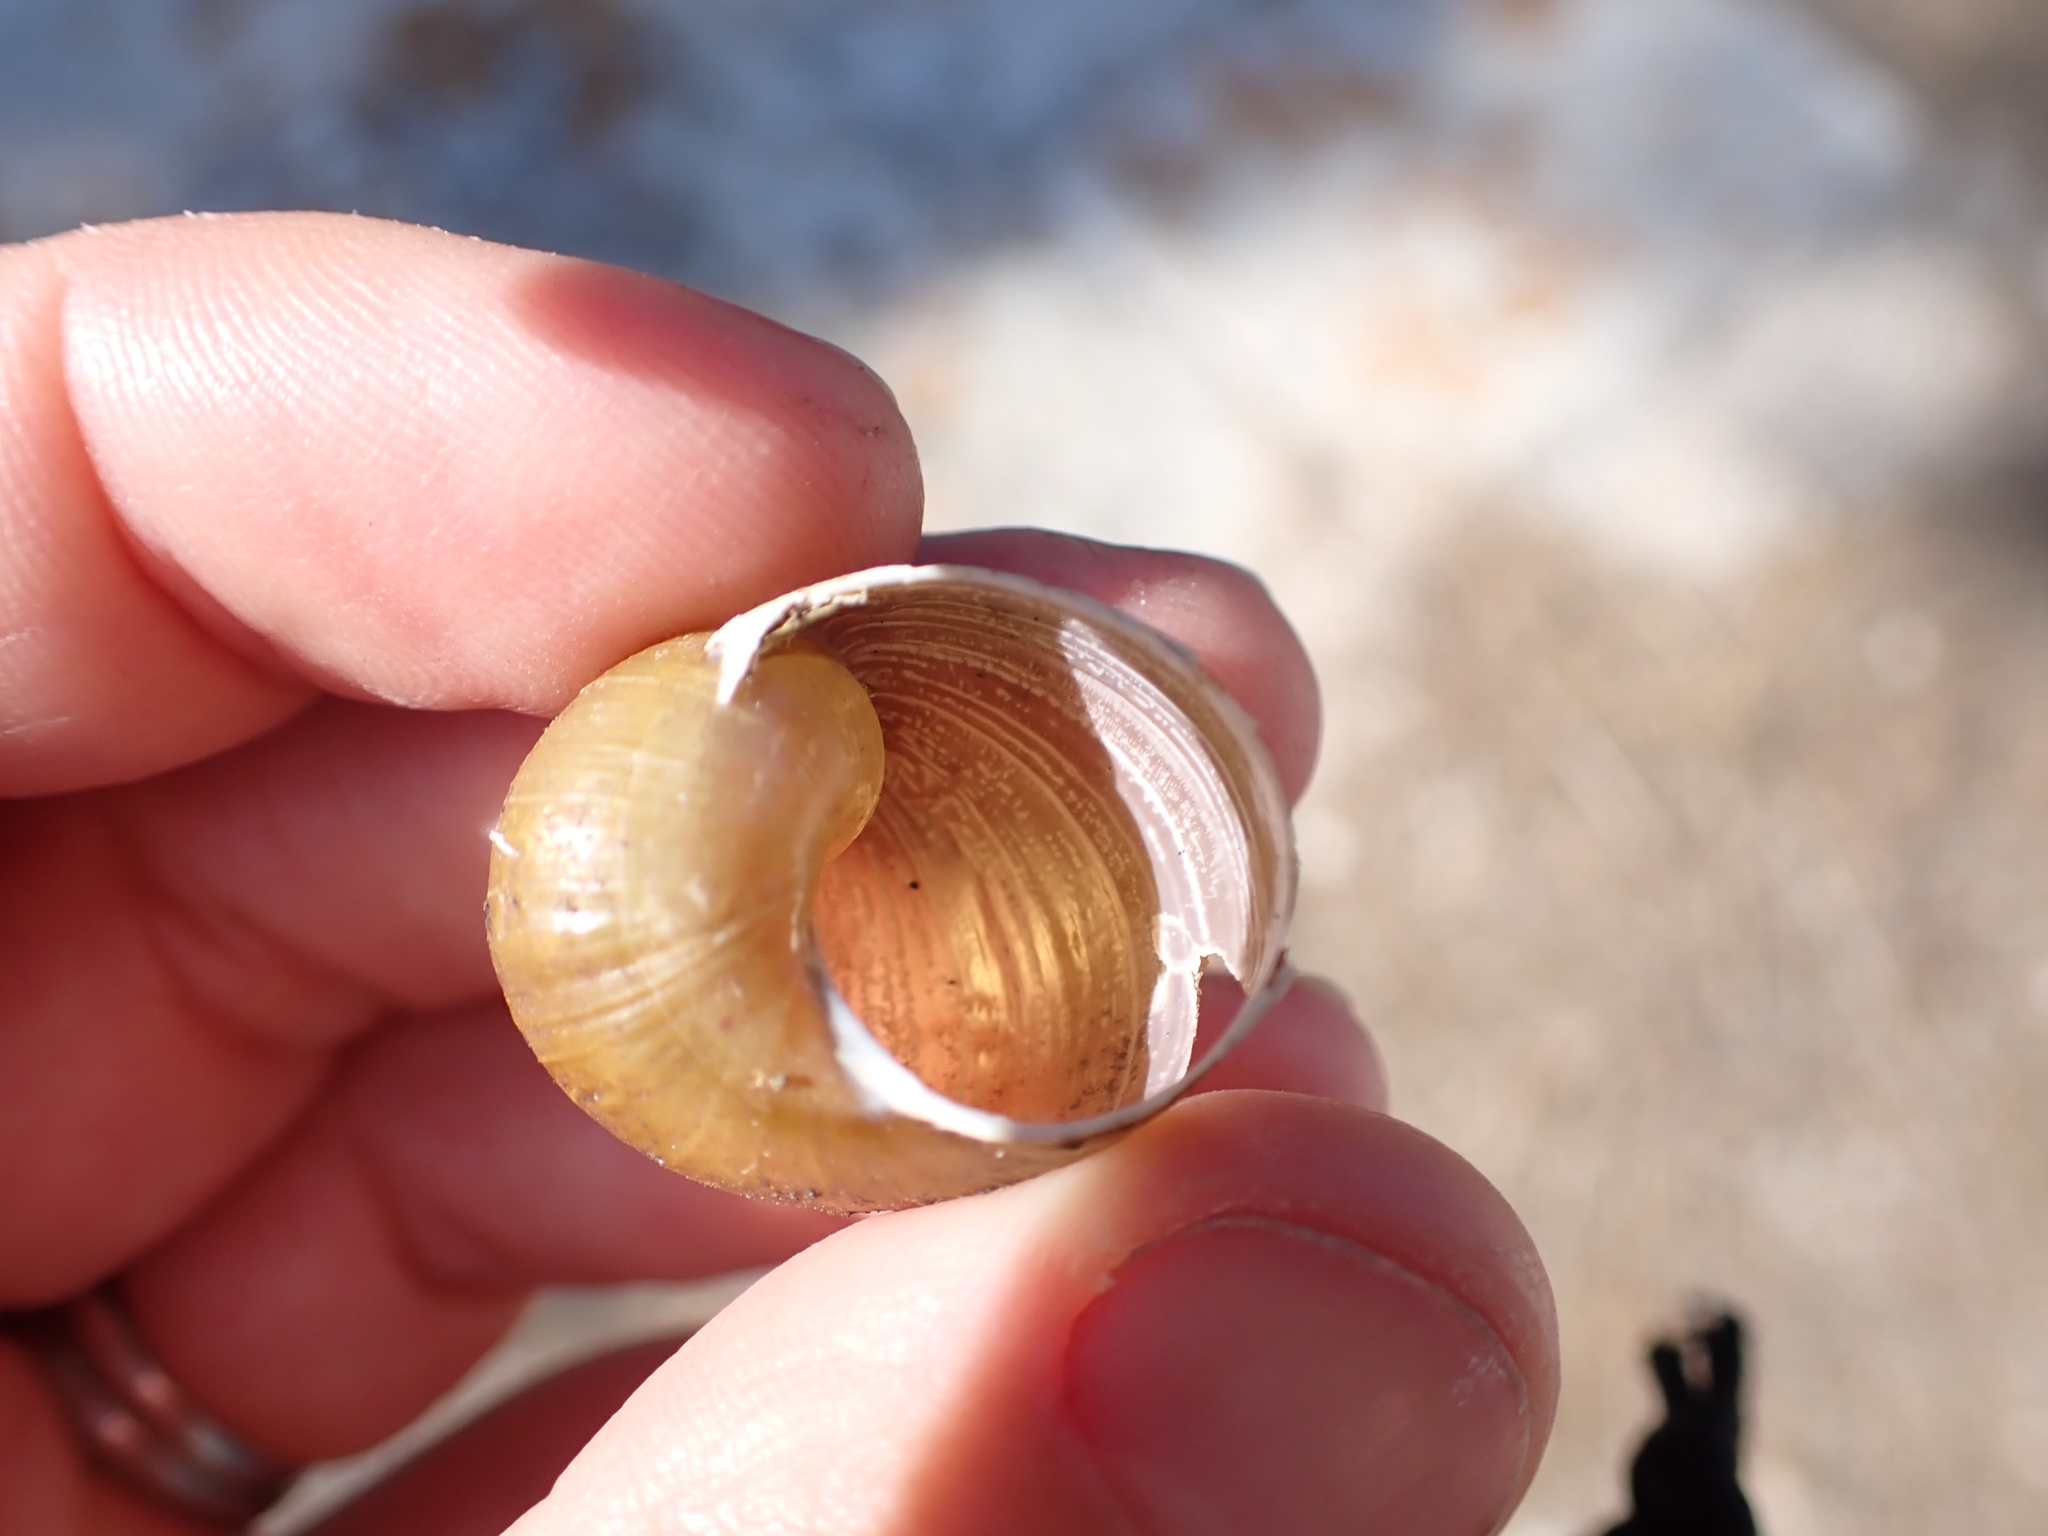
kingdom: Animalia
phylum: Mollusca
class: Gastropoda
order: Stylommatophora
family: Helicidae
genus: Cantareus
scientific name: Cantareus apertus
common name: Green gardensnail
